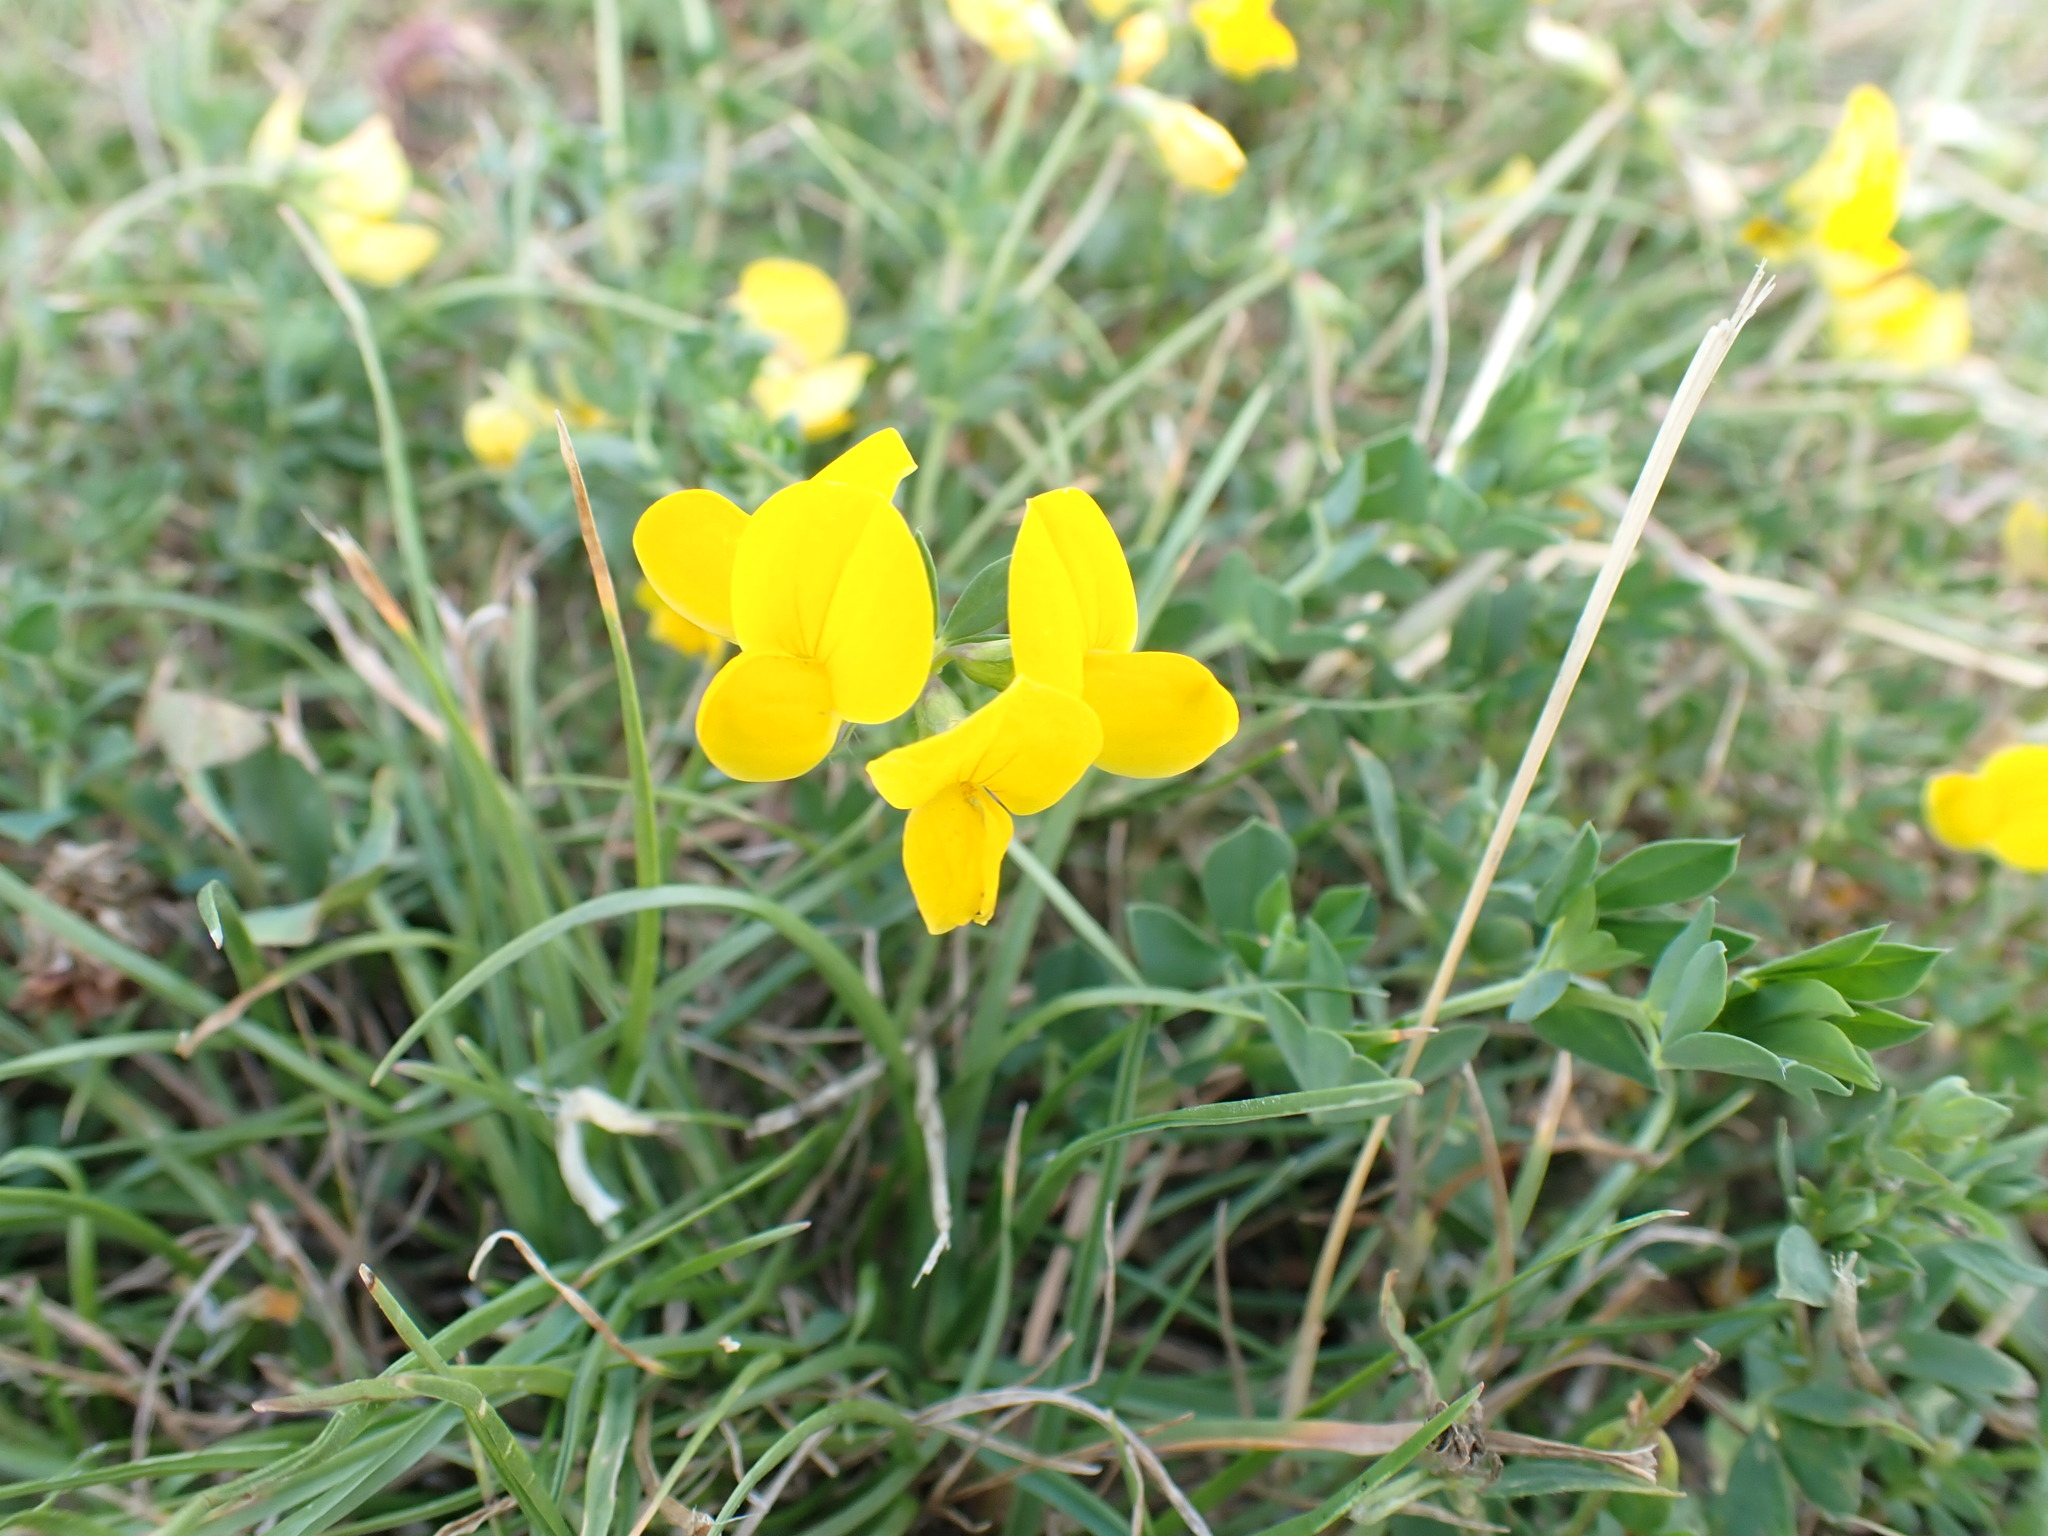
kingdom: Plantae
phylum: Tracheophyta
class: Magnoliopsida
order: Fabales
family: Fabaceae
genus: Lotus
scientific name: Lotus corniculatus
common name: Common bird's-foot-trefoil
